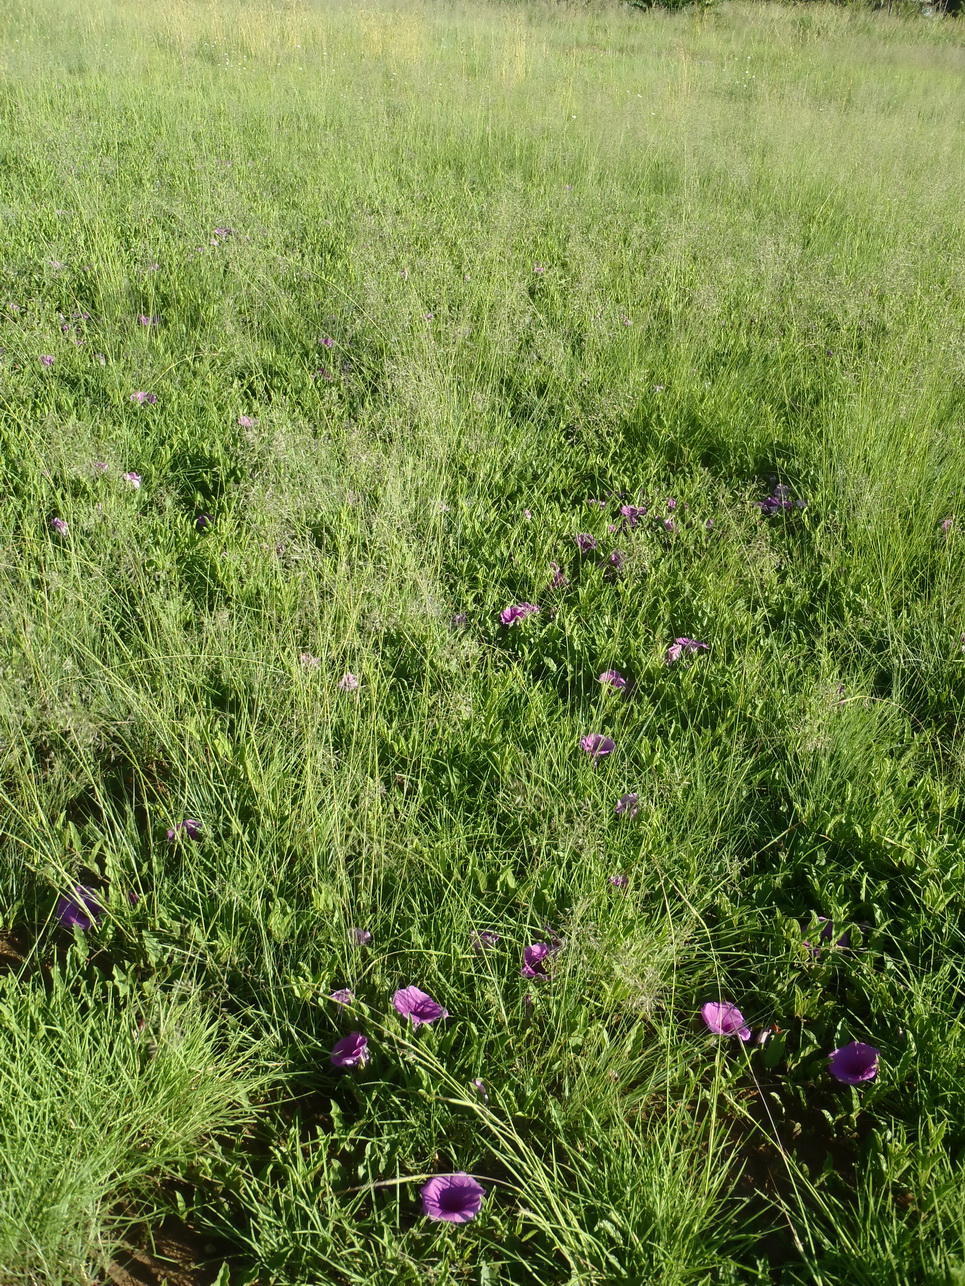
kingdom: Plantae
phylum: Tracheophyta
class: Magnoliopsida
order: Solanales
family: Convolvulaceae
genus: Ipomoea
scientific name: Ipomoea oblongata
